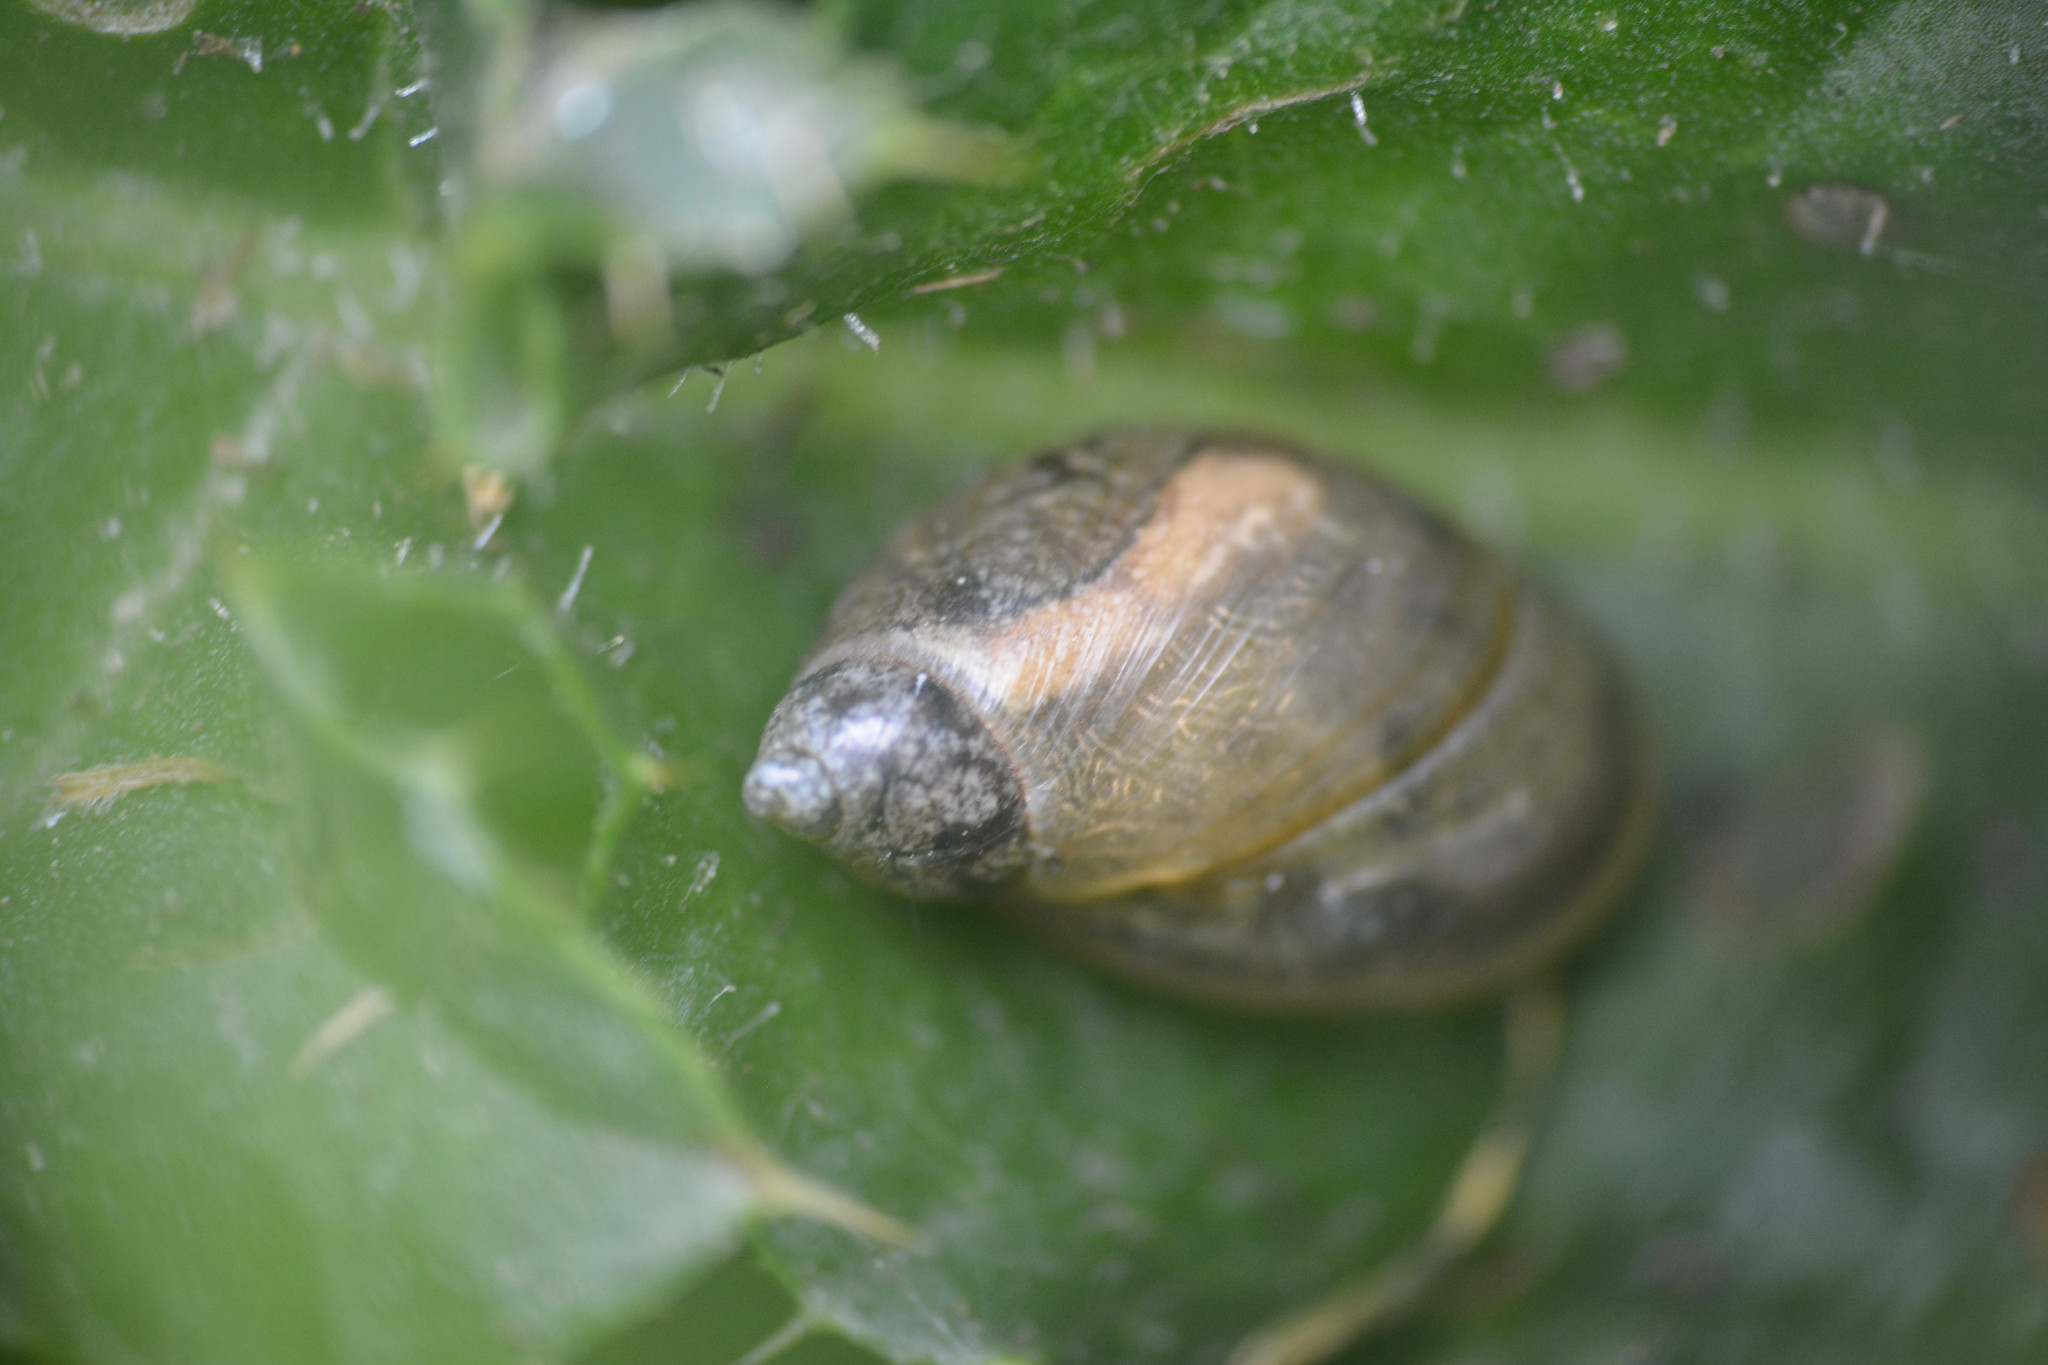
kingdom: Animalia
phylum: Mollusca
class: Gastropoda
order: Stylommatophora
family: Succineidae
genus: Succinea
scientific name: Succinea putris
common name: European ambersnail
